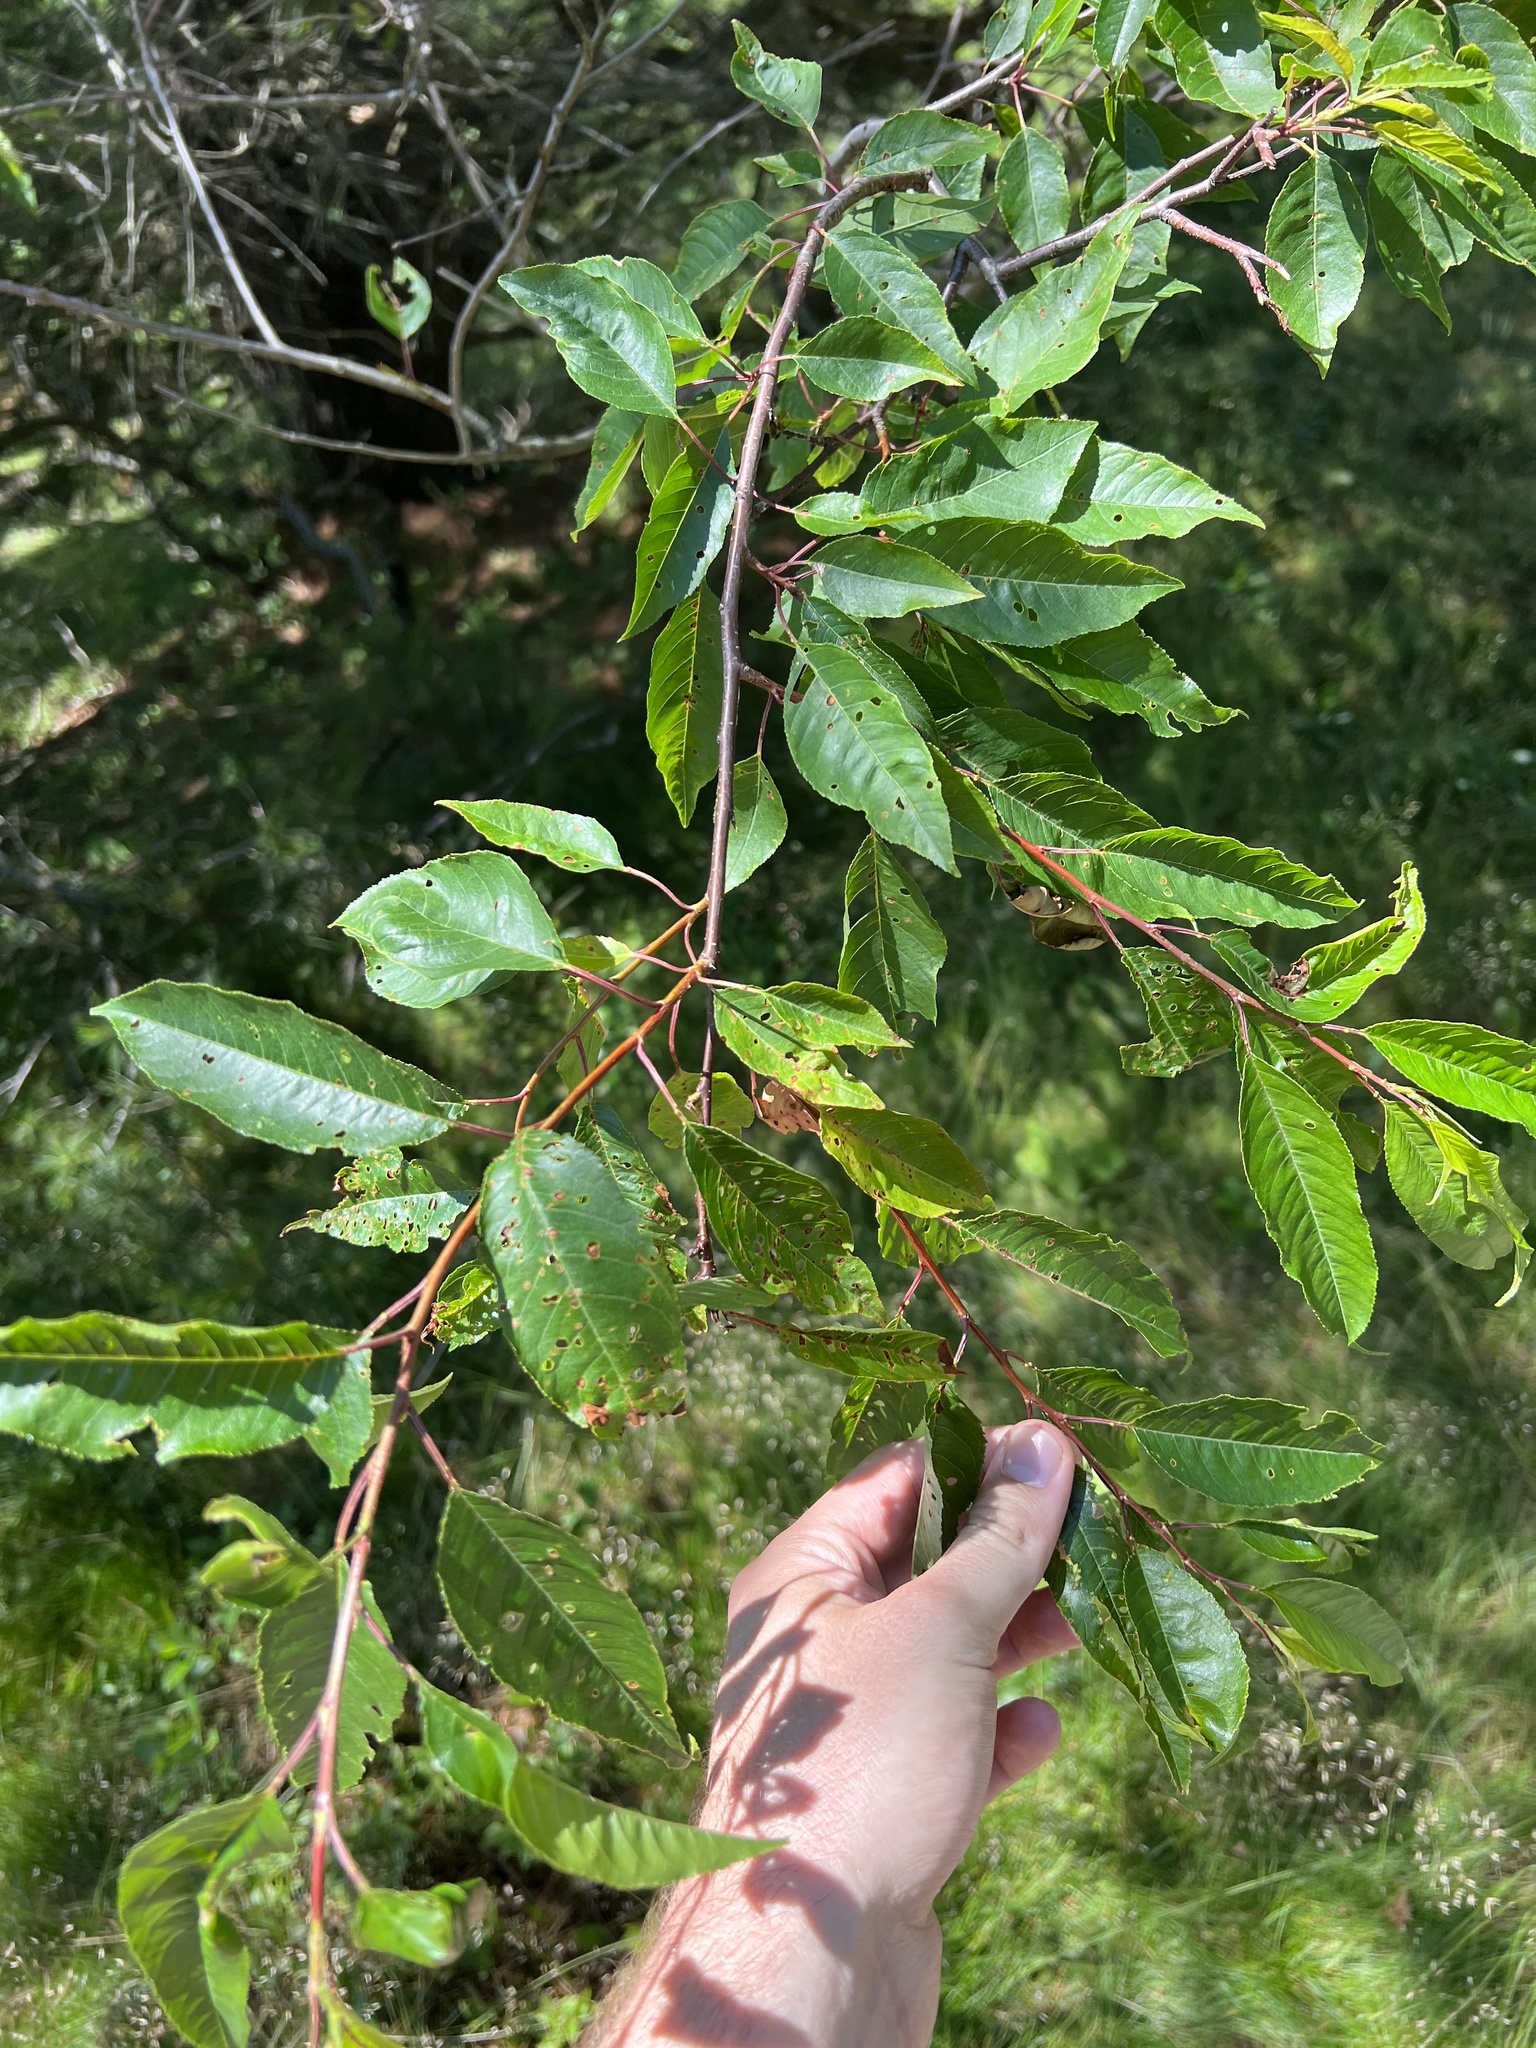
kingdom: Plantae
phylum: Tracheophyta
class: Magnoliopsida
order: Rosales
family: Rosaceae
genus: Prunus
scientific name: Prunus pensylvanica
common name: Pin cherry
